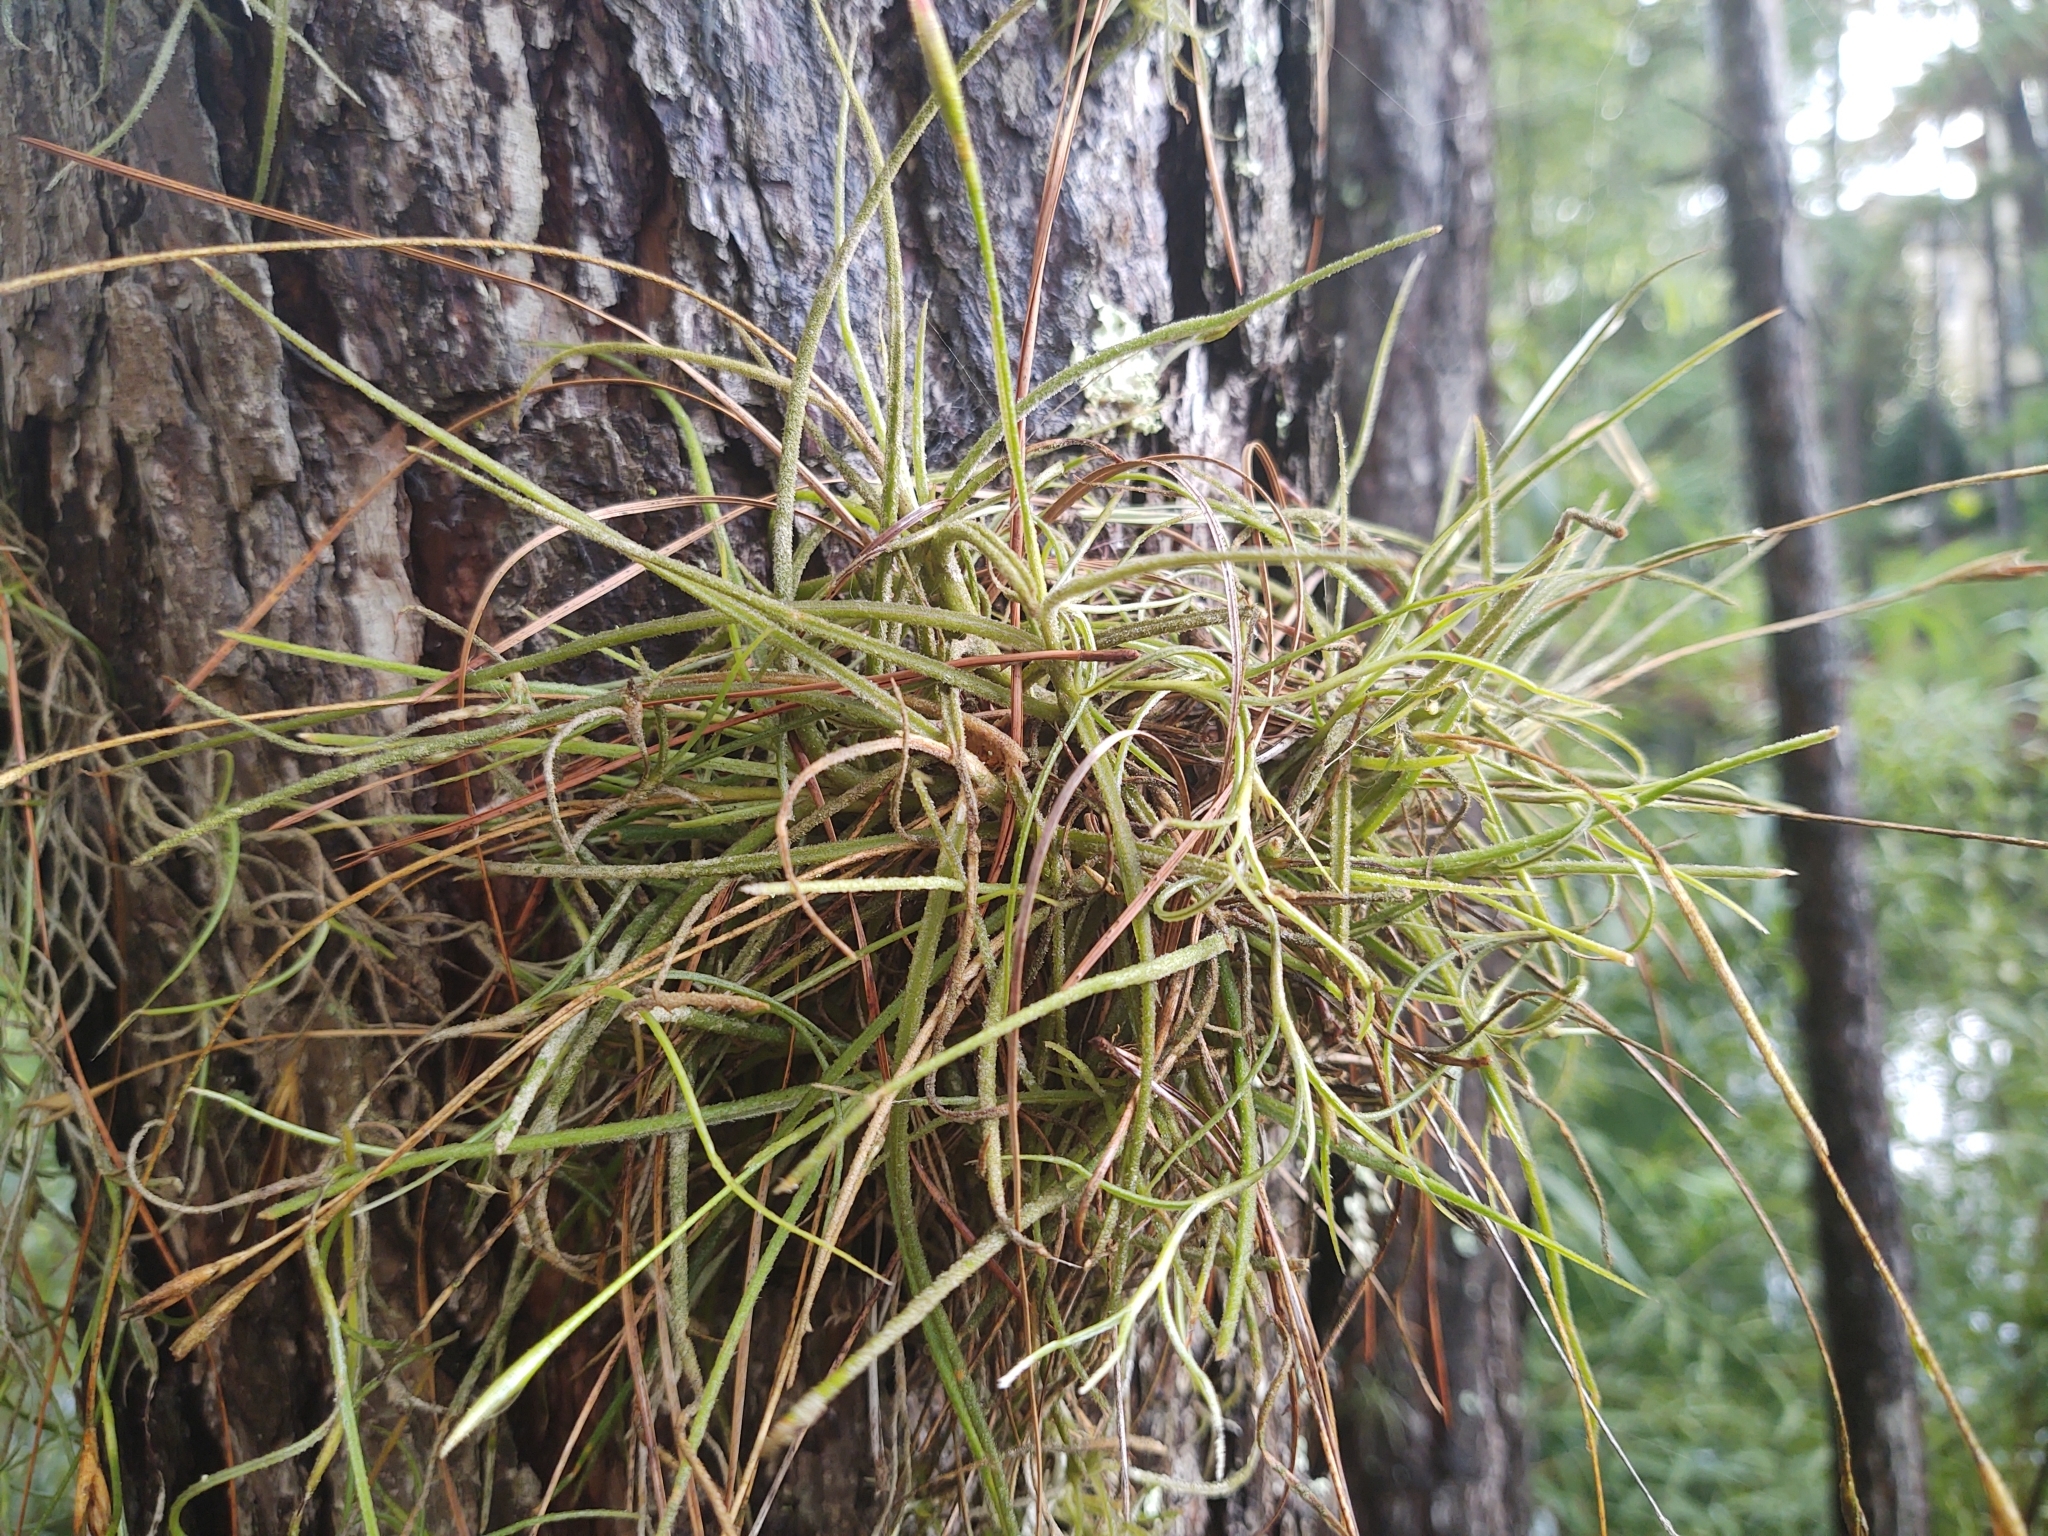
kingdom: Plantae
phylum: Tracheophyta
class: Liliopsida
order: Poales
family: Bromeliaceae
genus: Tillandsia
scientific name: Tillandsia recurvata
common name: Small ballmoss
